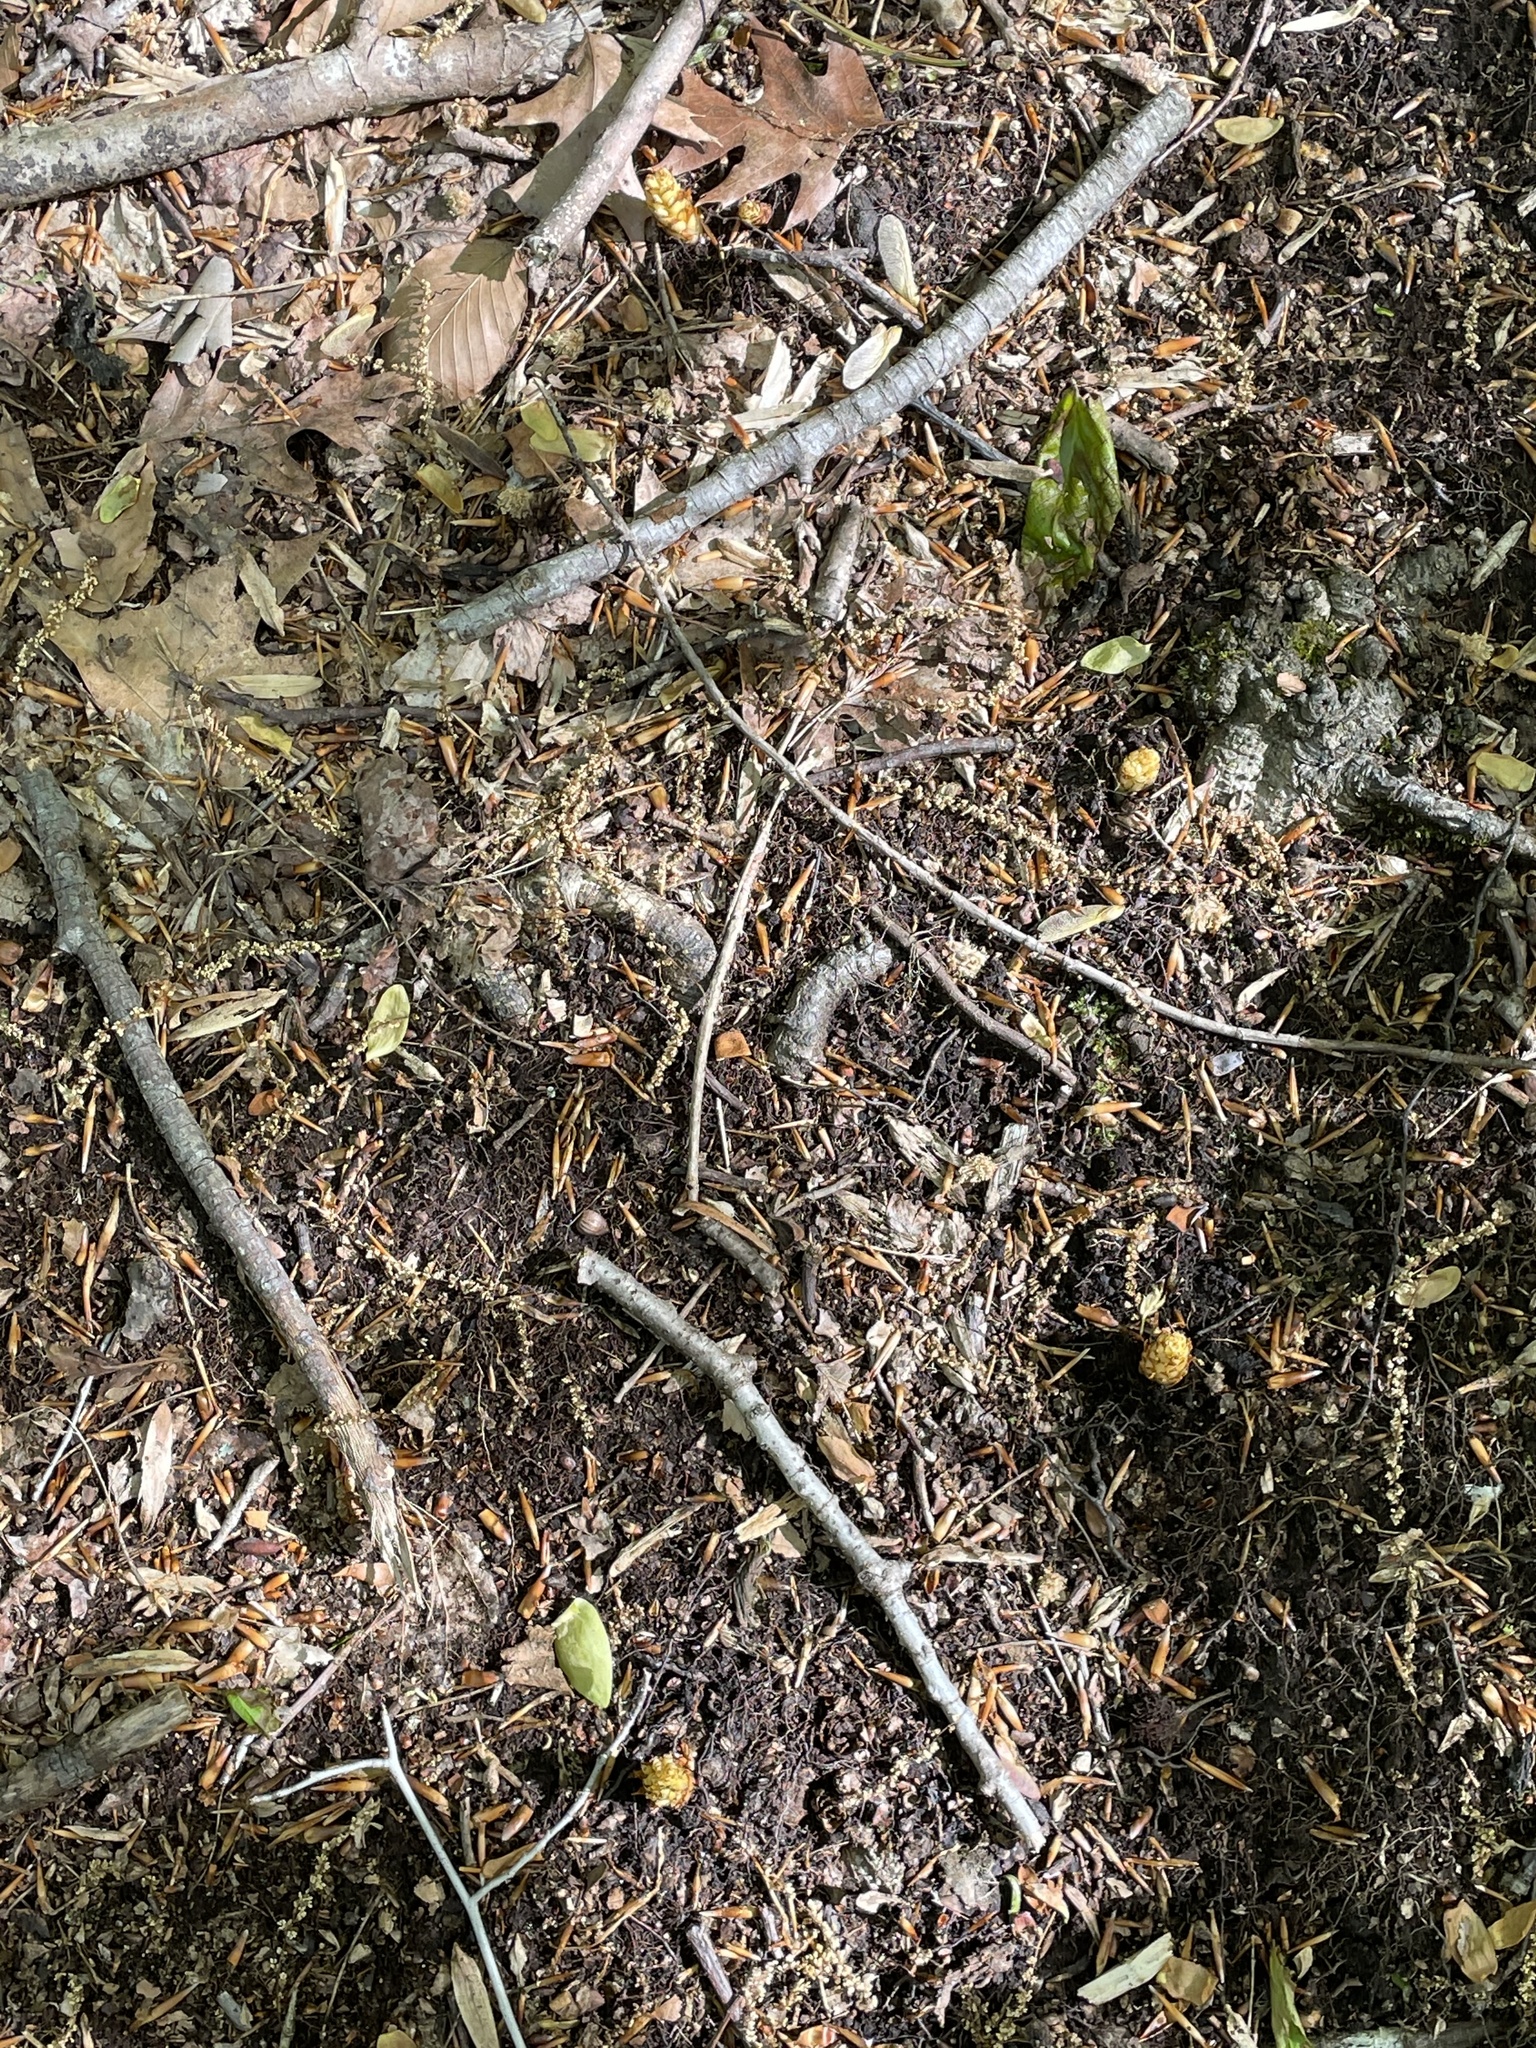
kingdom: Plantae
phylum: Tracheophyta
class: Magnoliopsida
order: Lamiales
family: Orobanchaceae
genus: Conopholis
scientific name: Conopholis americana
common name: American cancer-root
